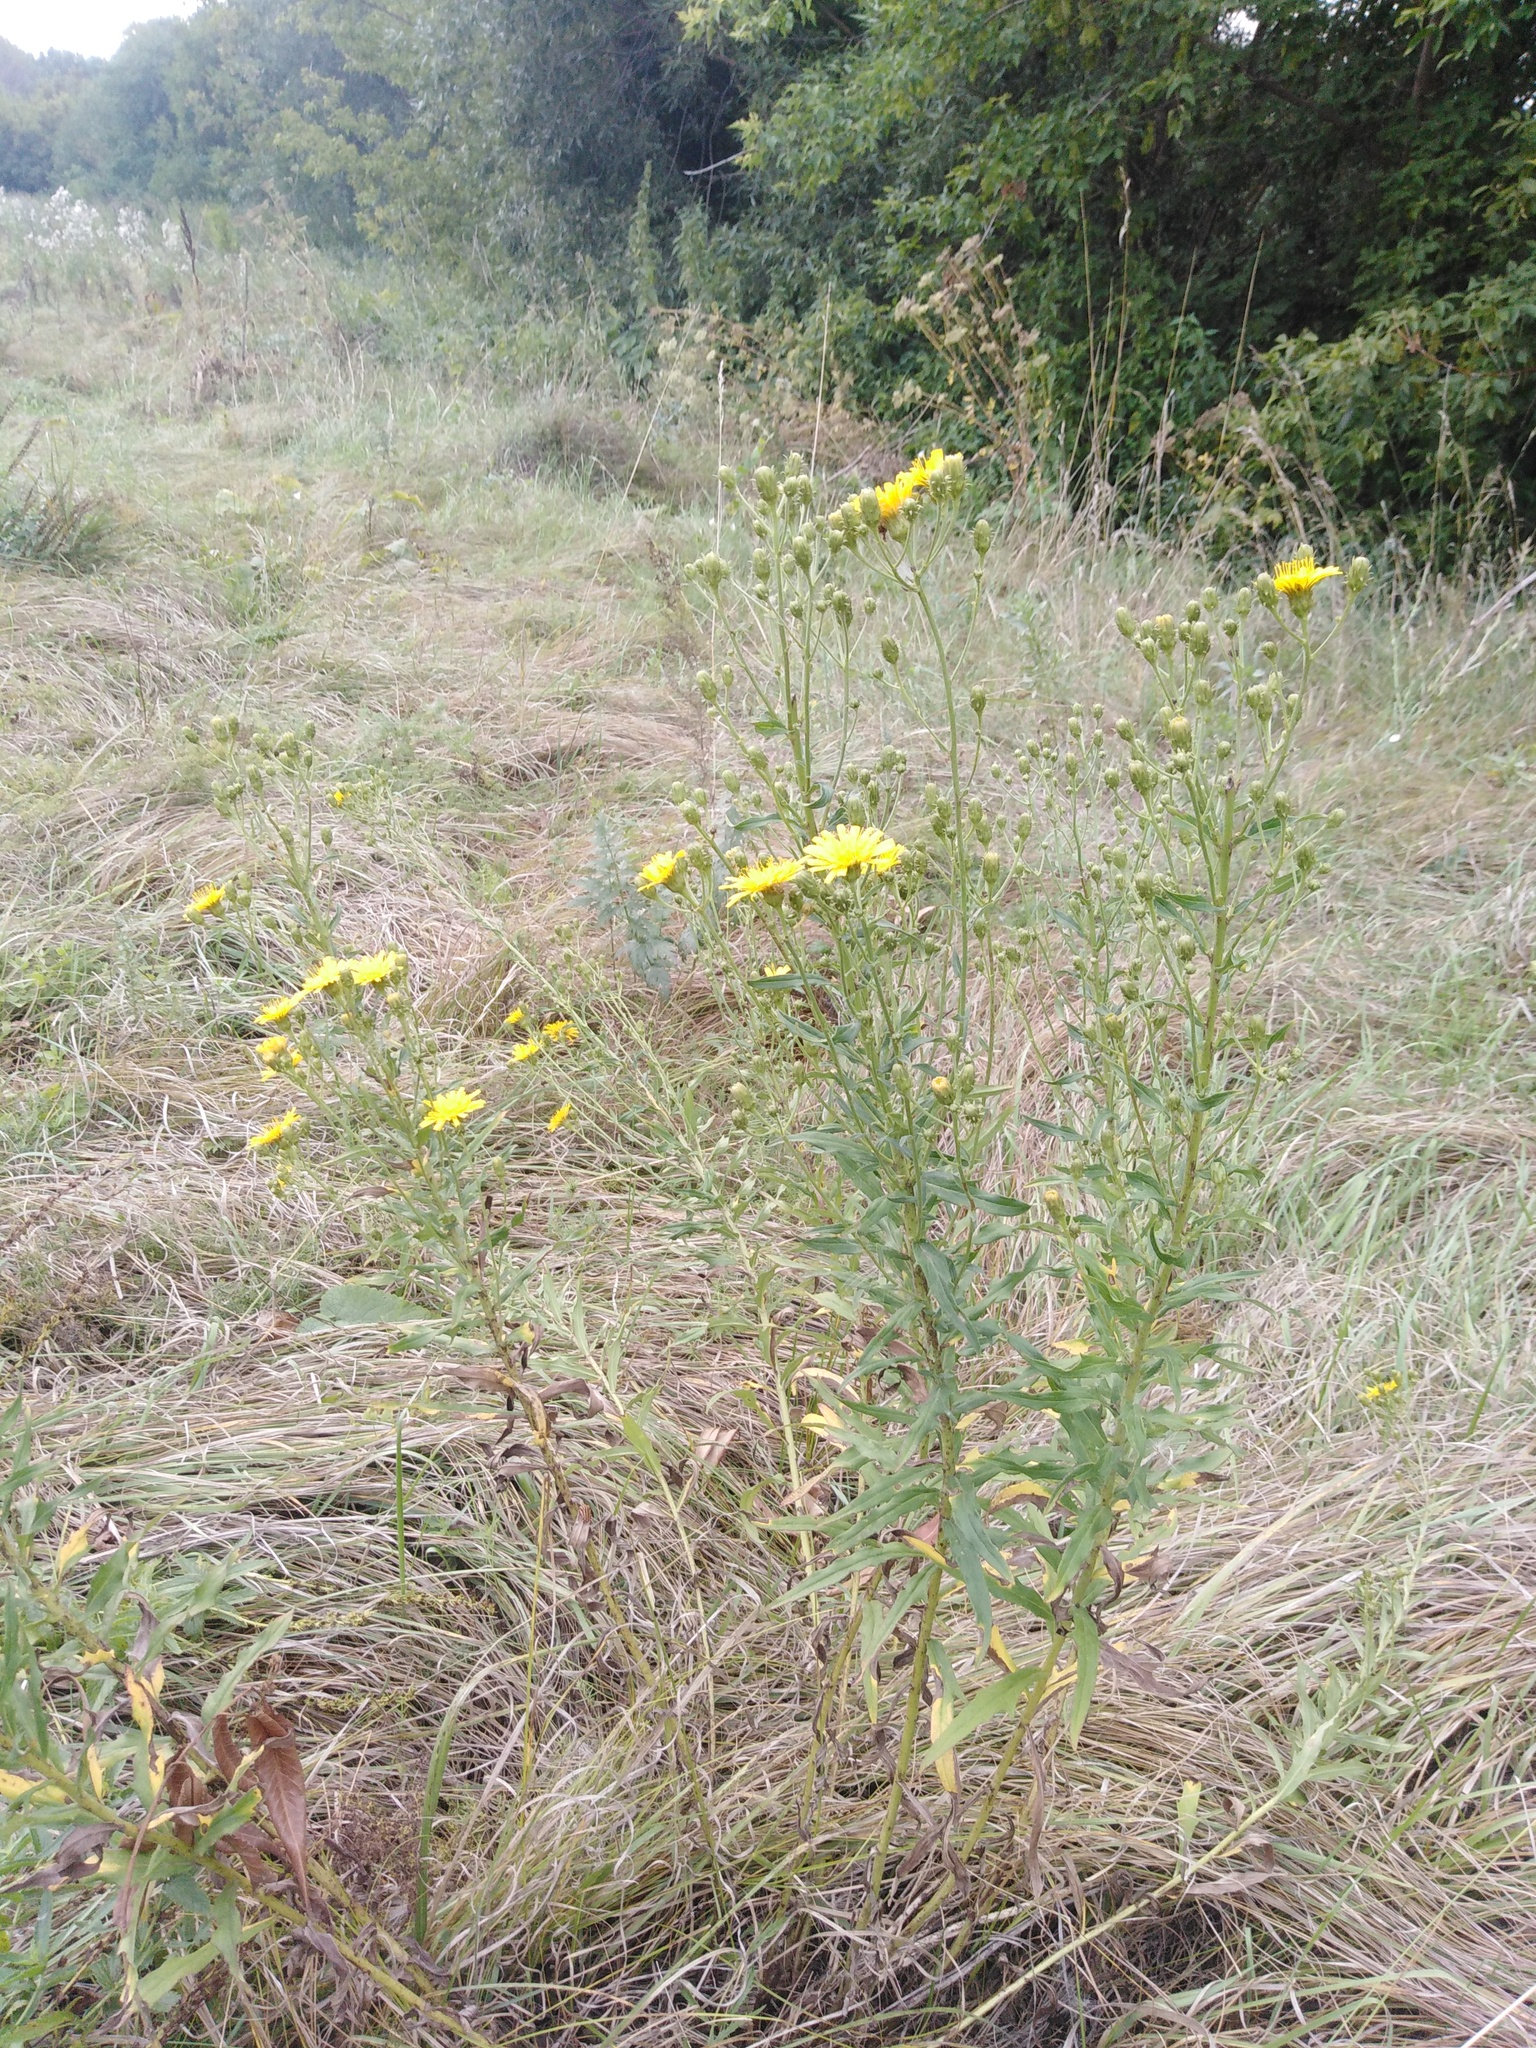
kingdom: Plantae
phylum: Tracheophyta
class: Magnoliopsida
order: Asterales
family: Asteraceae
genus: Hieracium
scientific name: Hieracium umbellatum
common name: Northern hawkweed
